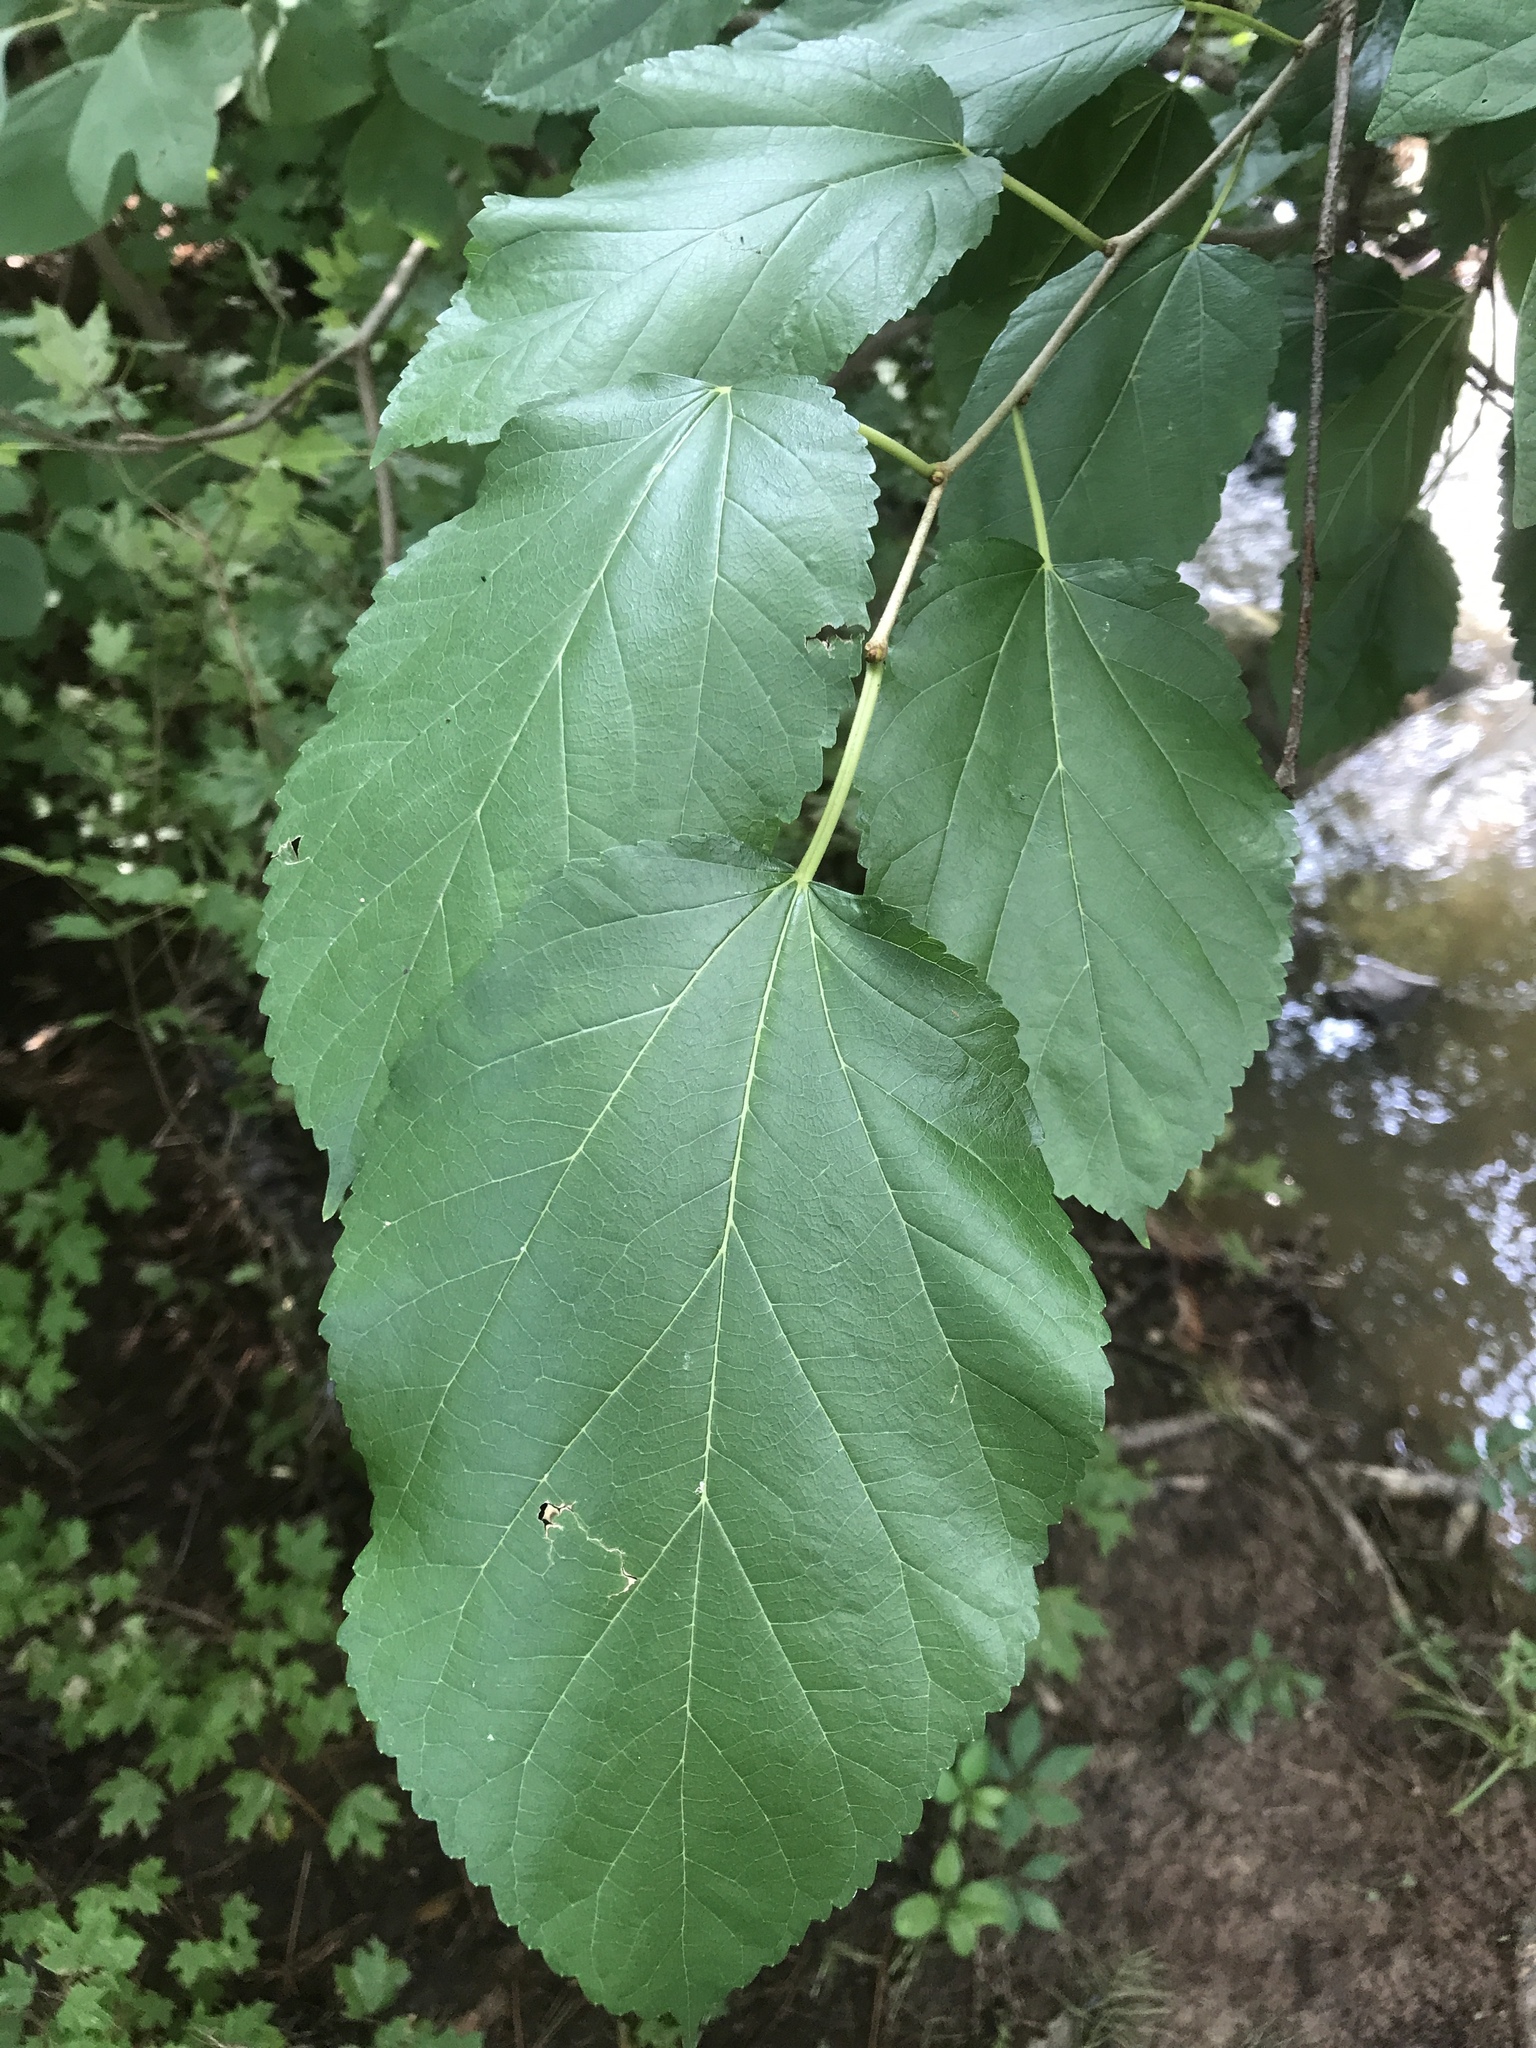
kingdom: Plantae
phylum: Tracheophyta
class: Magnoliopsida
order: Rosales
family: Moraceae
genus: Morus
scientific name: Morus rubra
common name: Red mulberry
